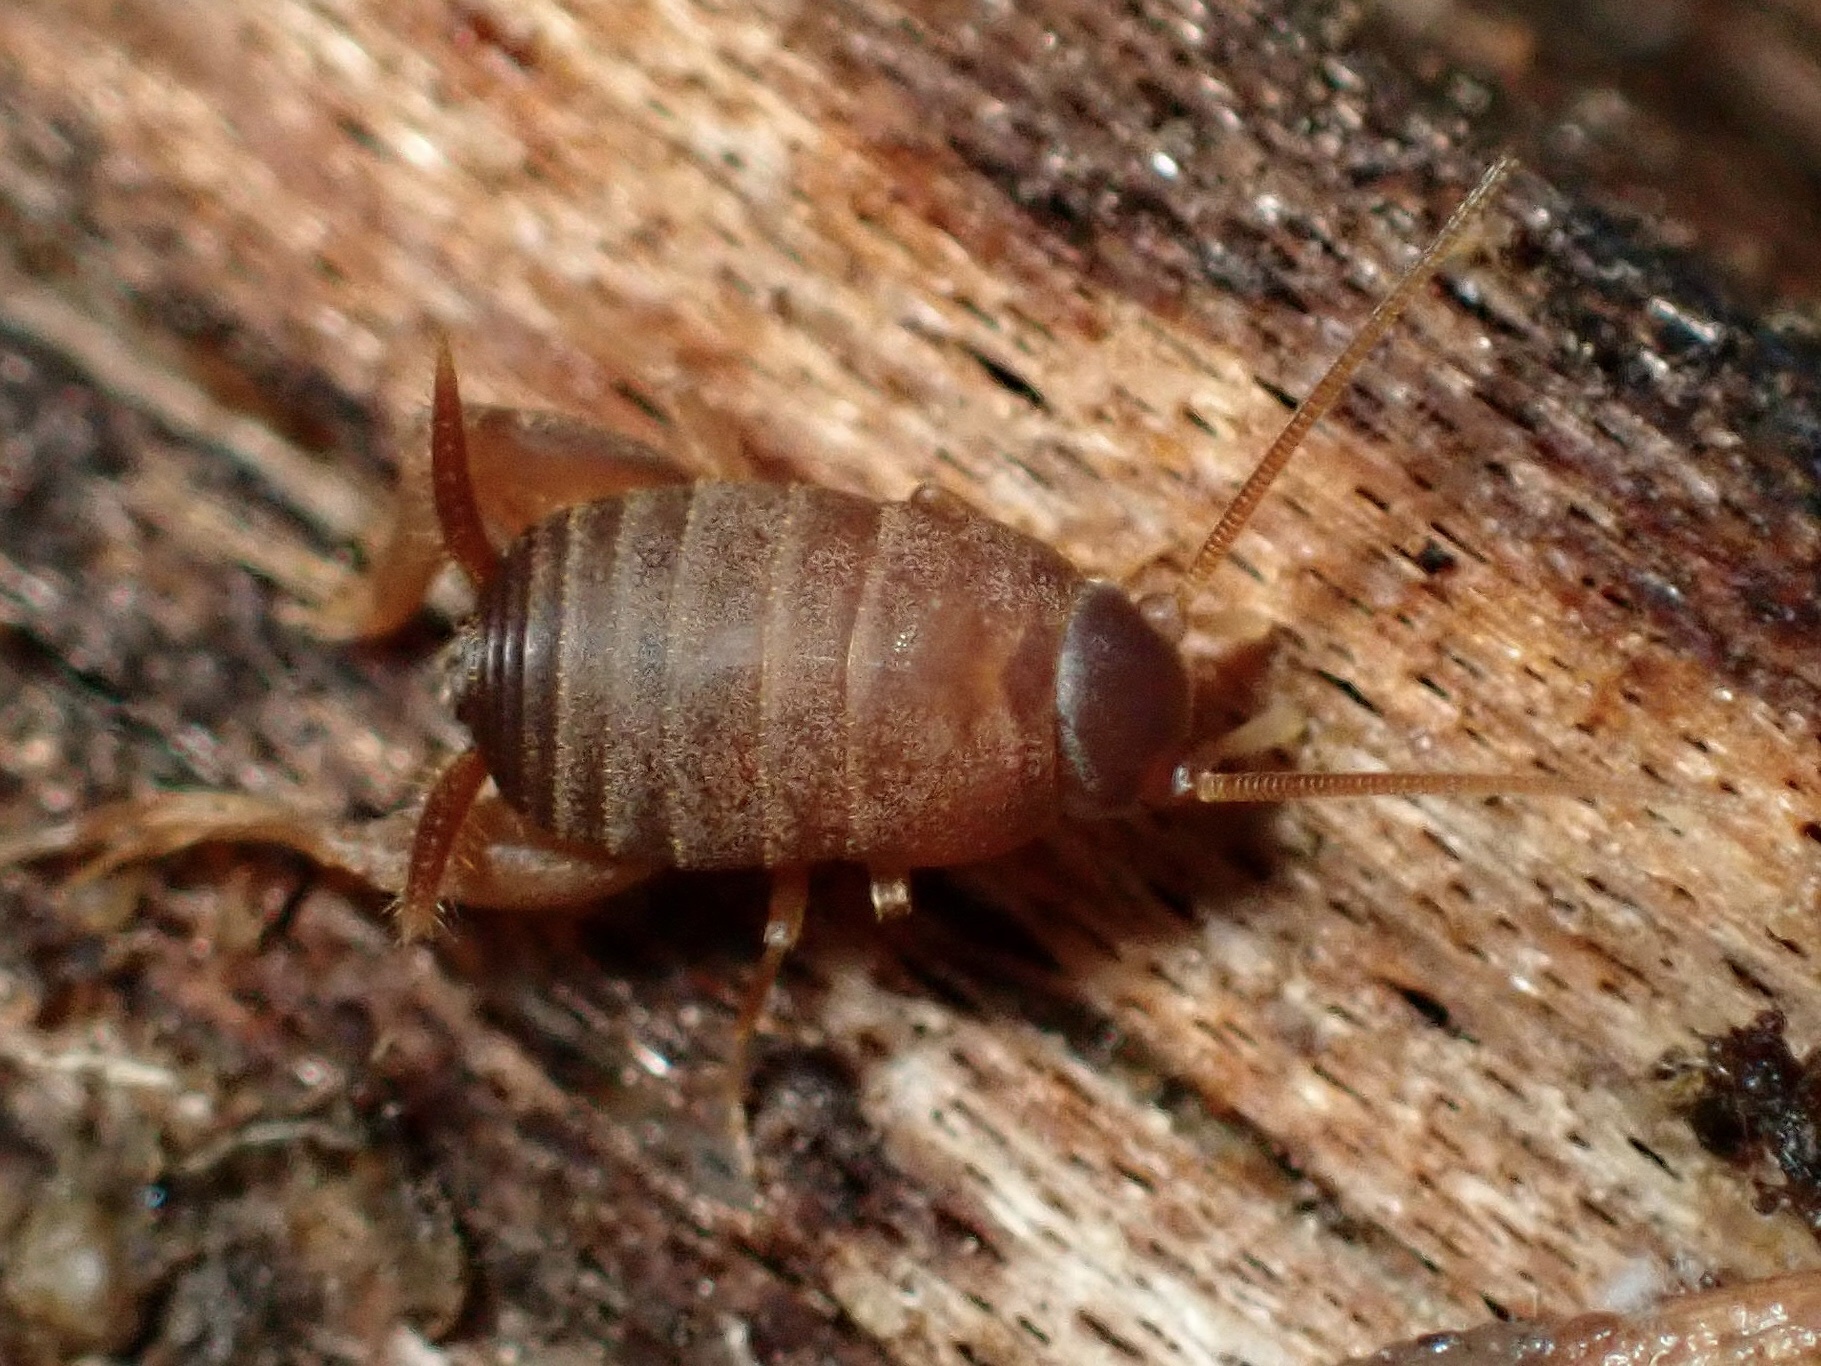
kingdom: Animalia
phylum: Arthropoda
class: Insecta
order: Orthoptera
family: Myrmecophilidae
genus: Myrmecophilus
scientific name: Myrmecophilus oregonensis
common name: Oregon ant cricket
